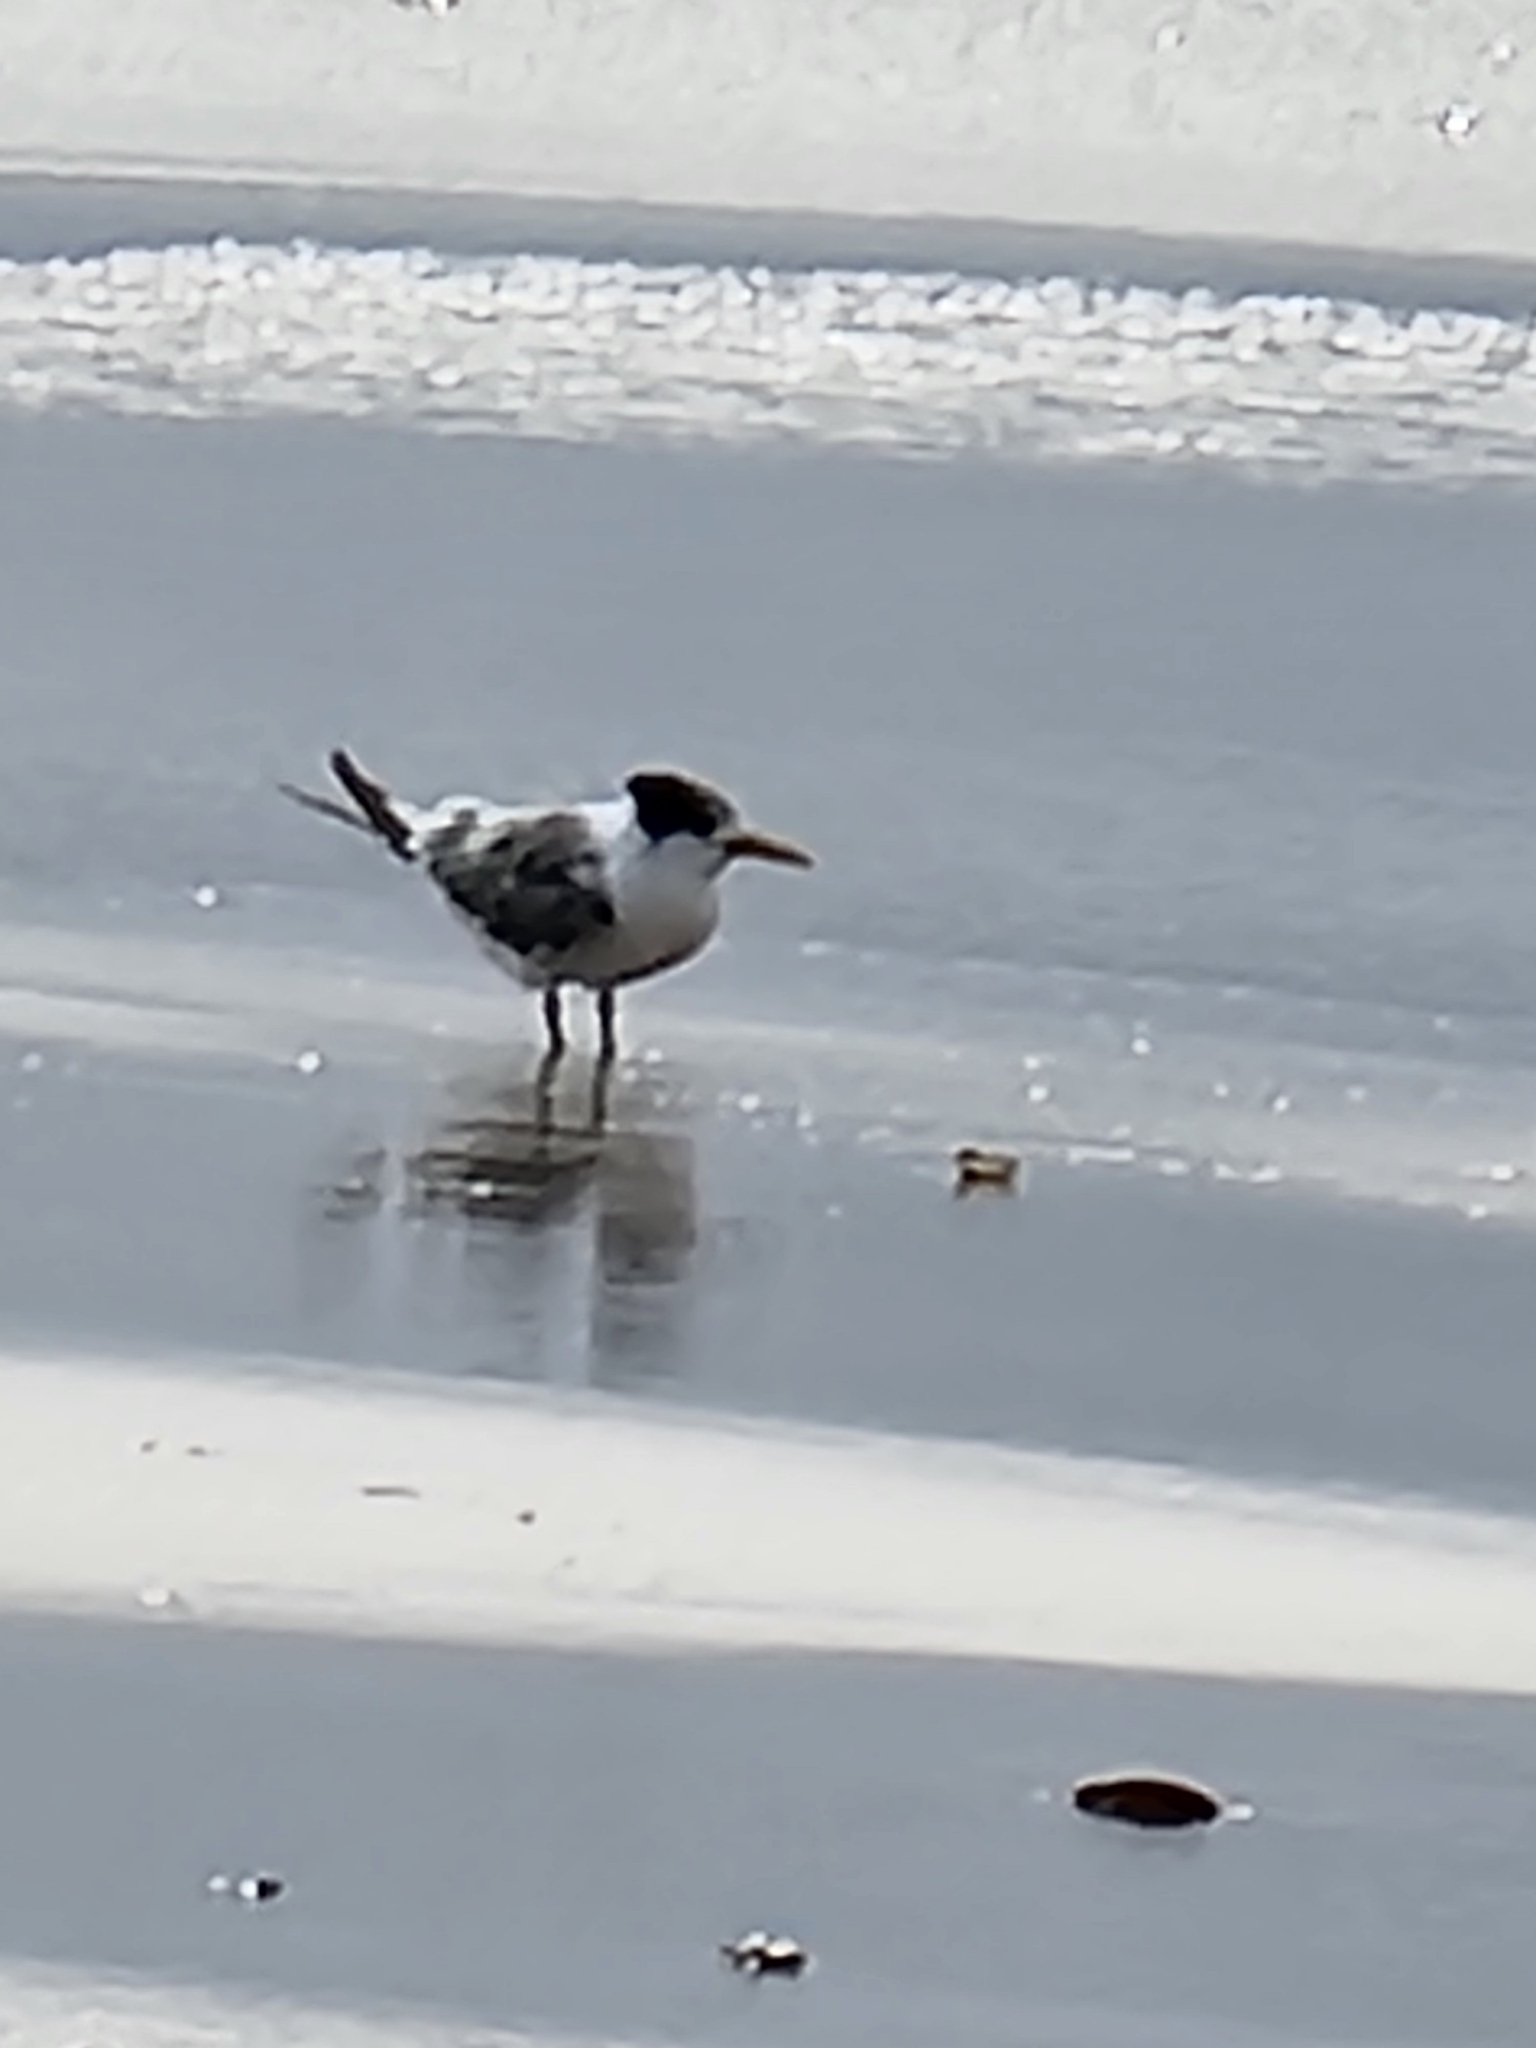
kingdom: Animalia
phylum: Chordata
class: Aves
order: Charadriiformes
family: Laridae
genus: Thalasseus
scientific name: Thalasseus bergii
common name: Greater crested tern
